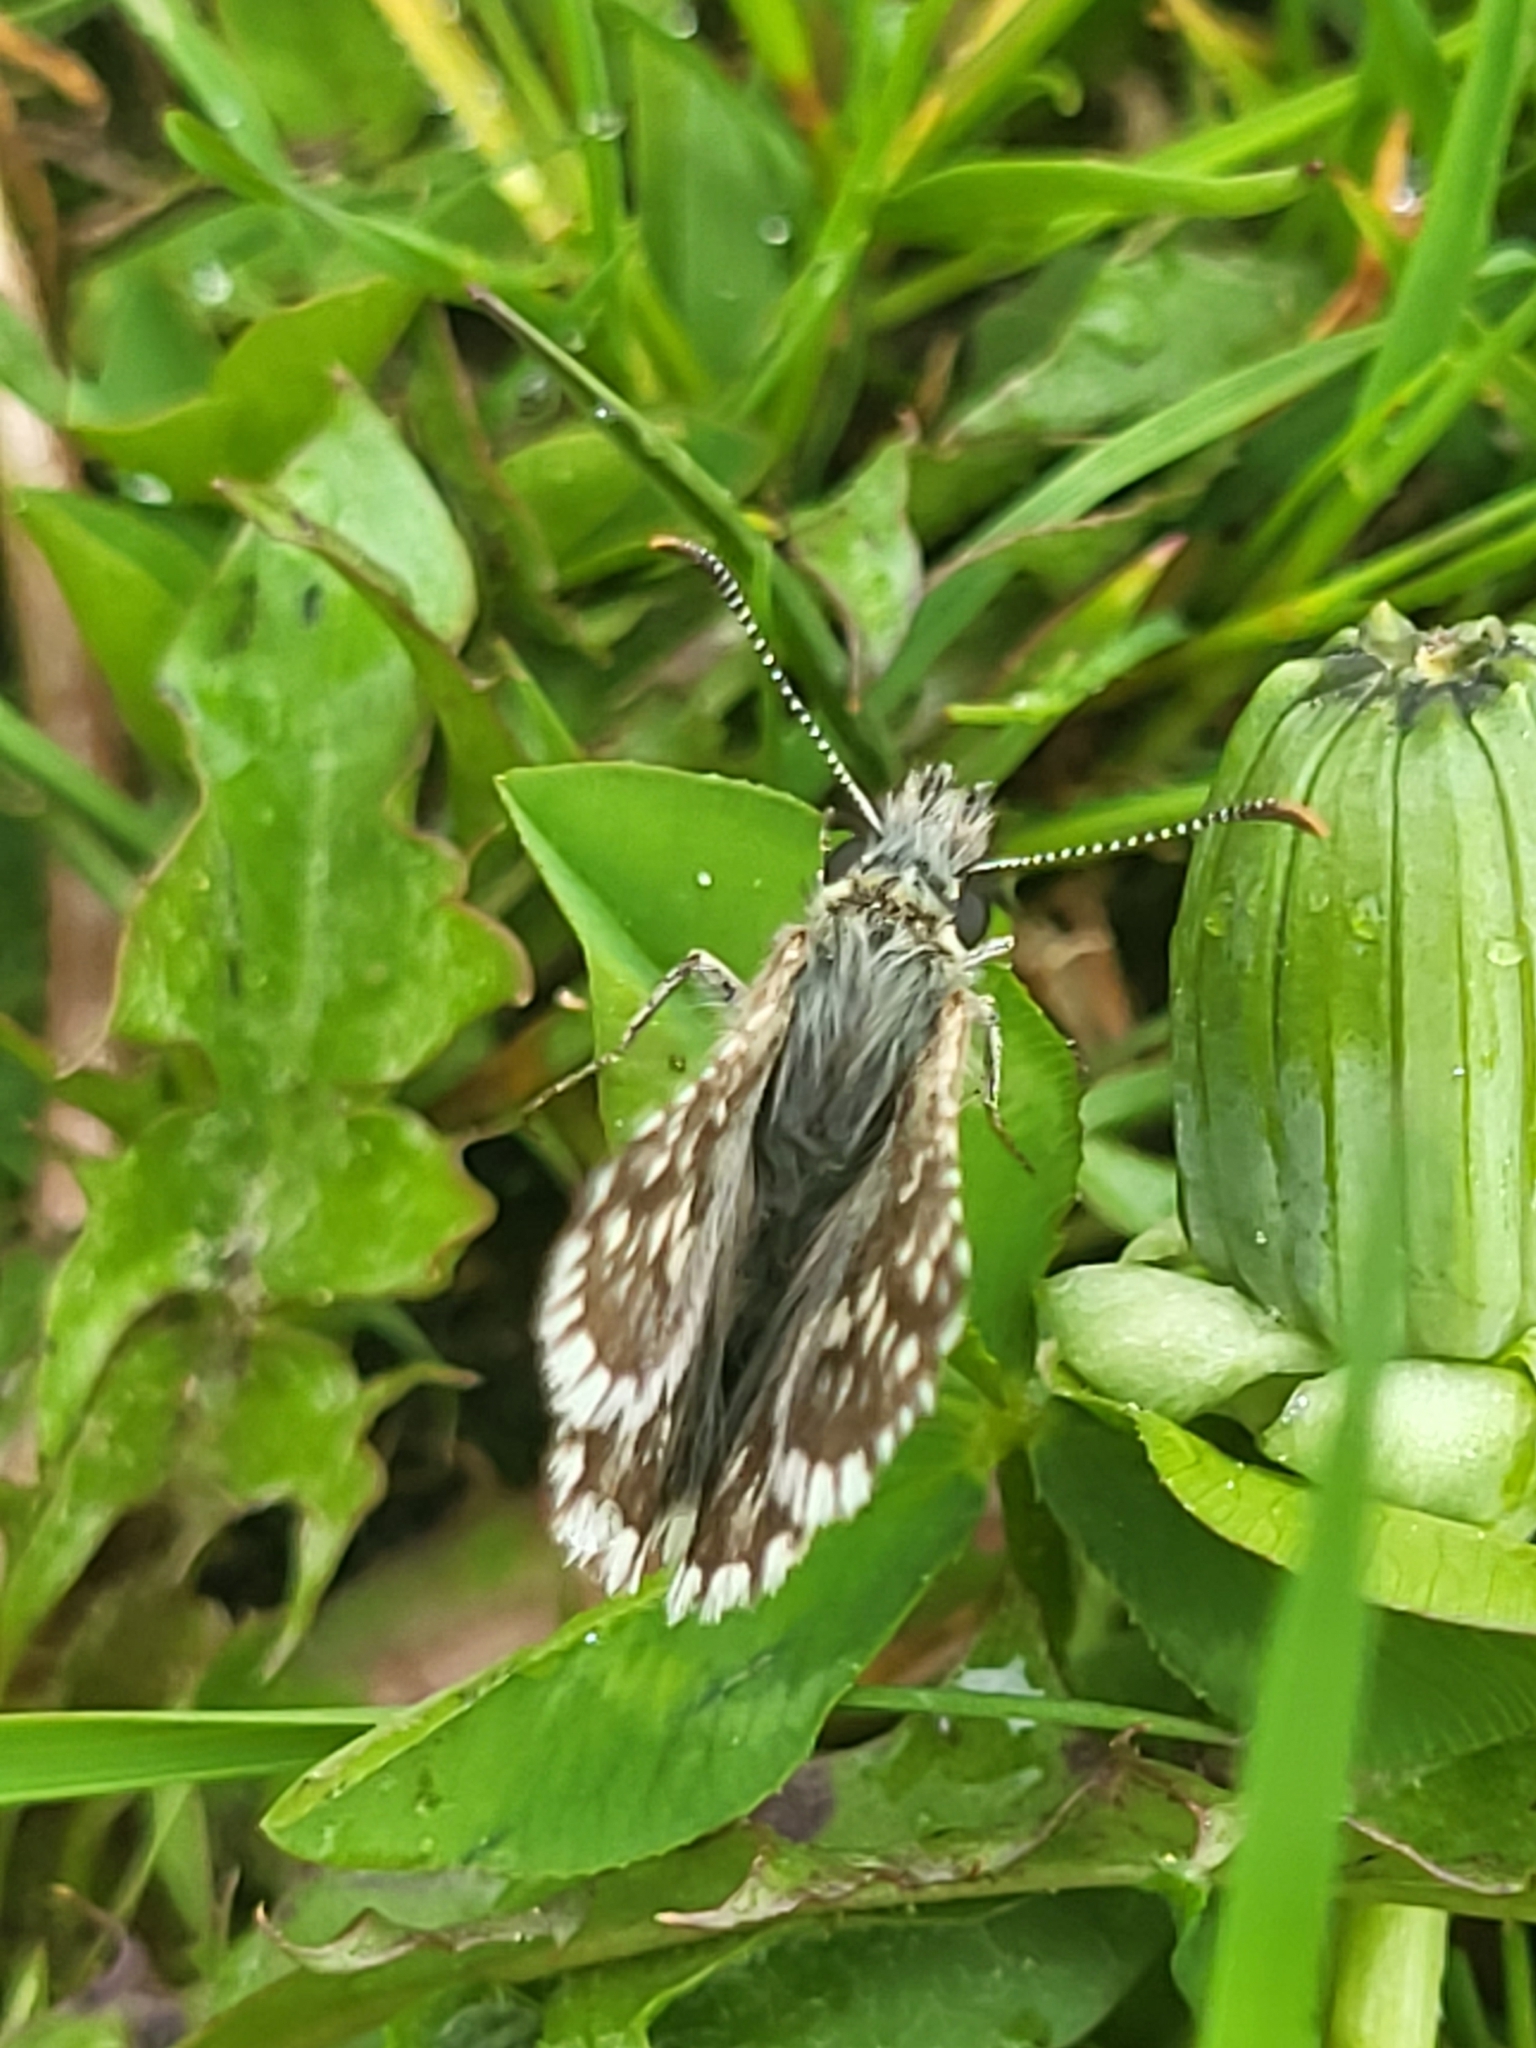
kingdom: Animalia
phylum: Arthropoda
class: Insecta
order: Lepidoptera
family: Hesperiidae
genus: Pyrgus
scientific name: Pyrgus melotis
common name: Aegean skipper
